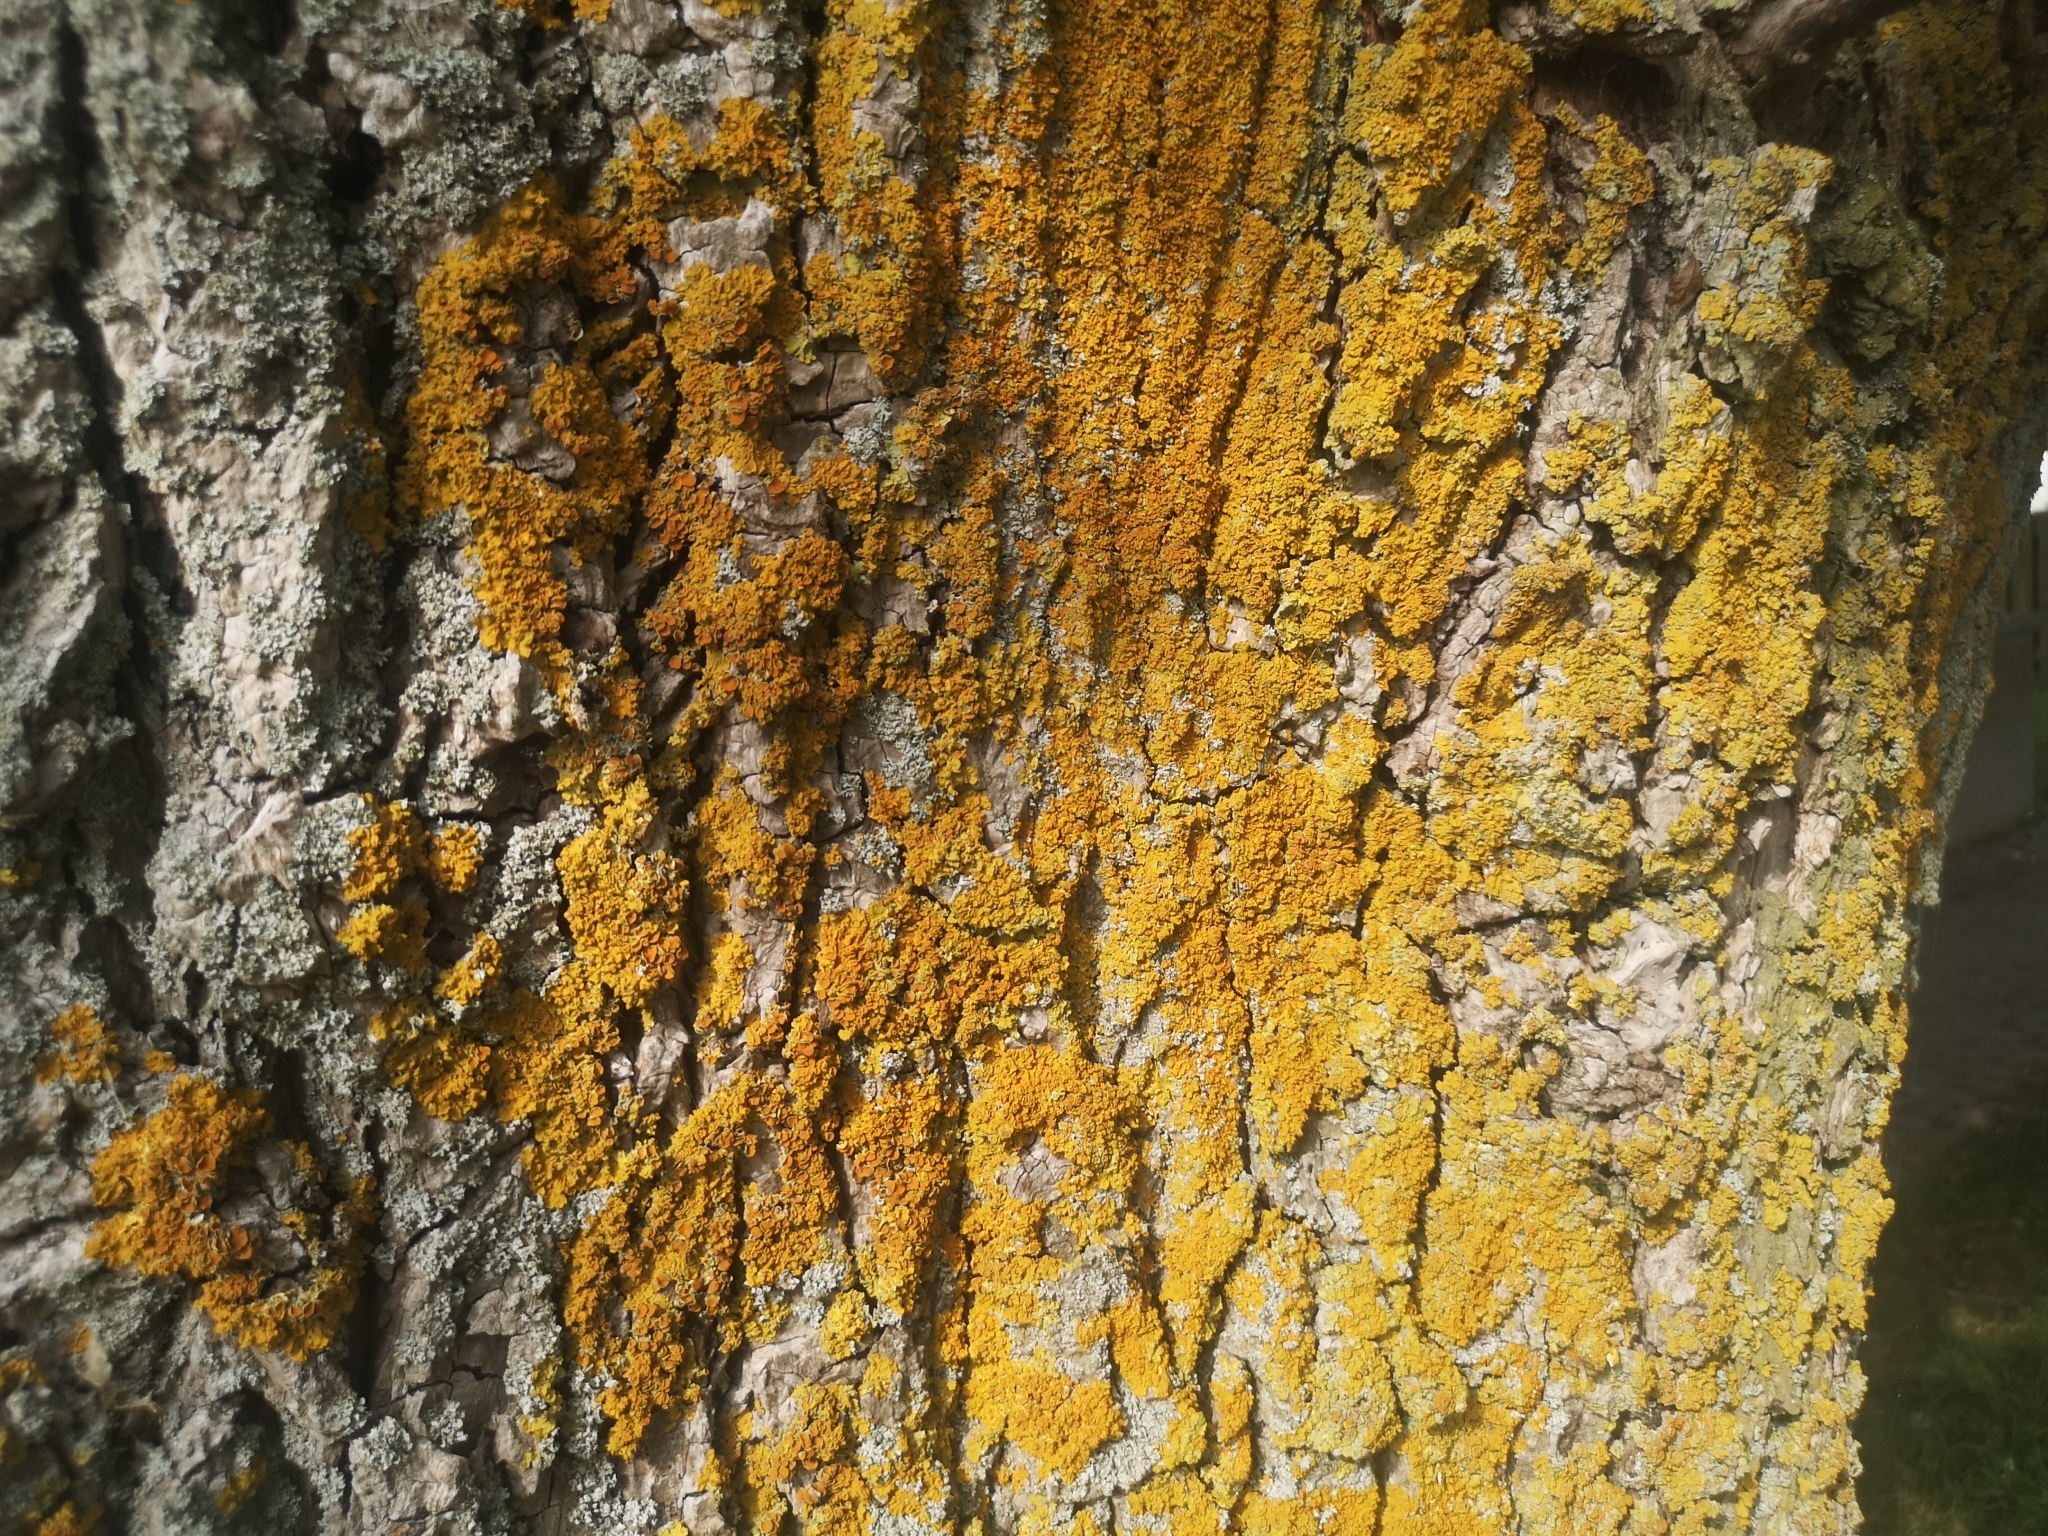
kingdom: Fungi
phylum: Ascomycota
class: Lecanoromycetes
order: Teloschistales
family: Teloschistaceae
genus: Xanthoria
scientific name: Xanthoria parietina
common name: Common orange lichen
